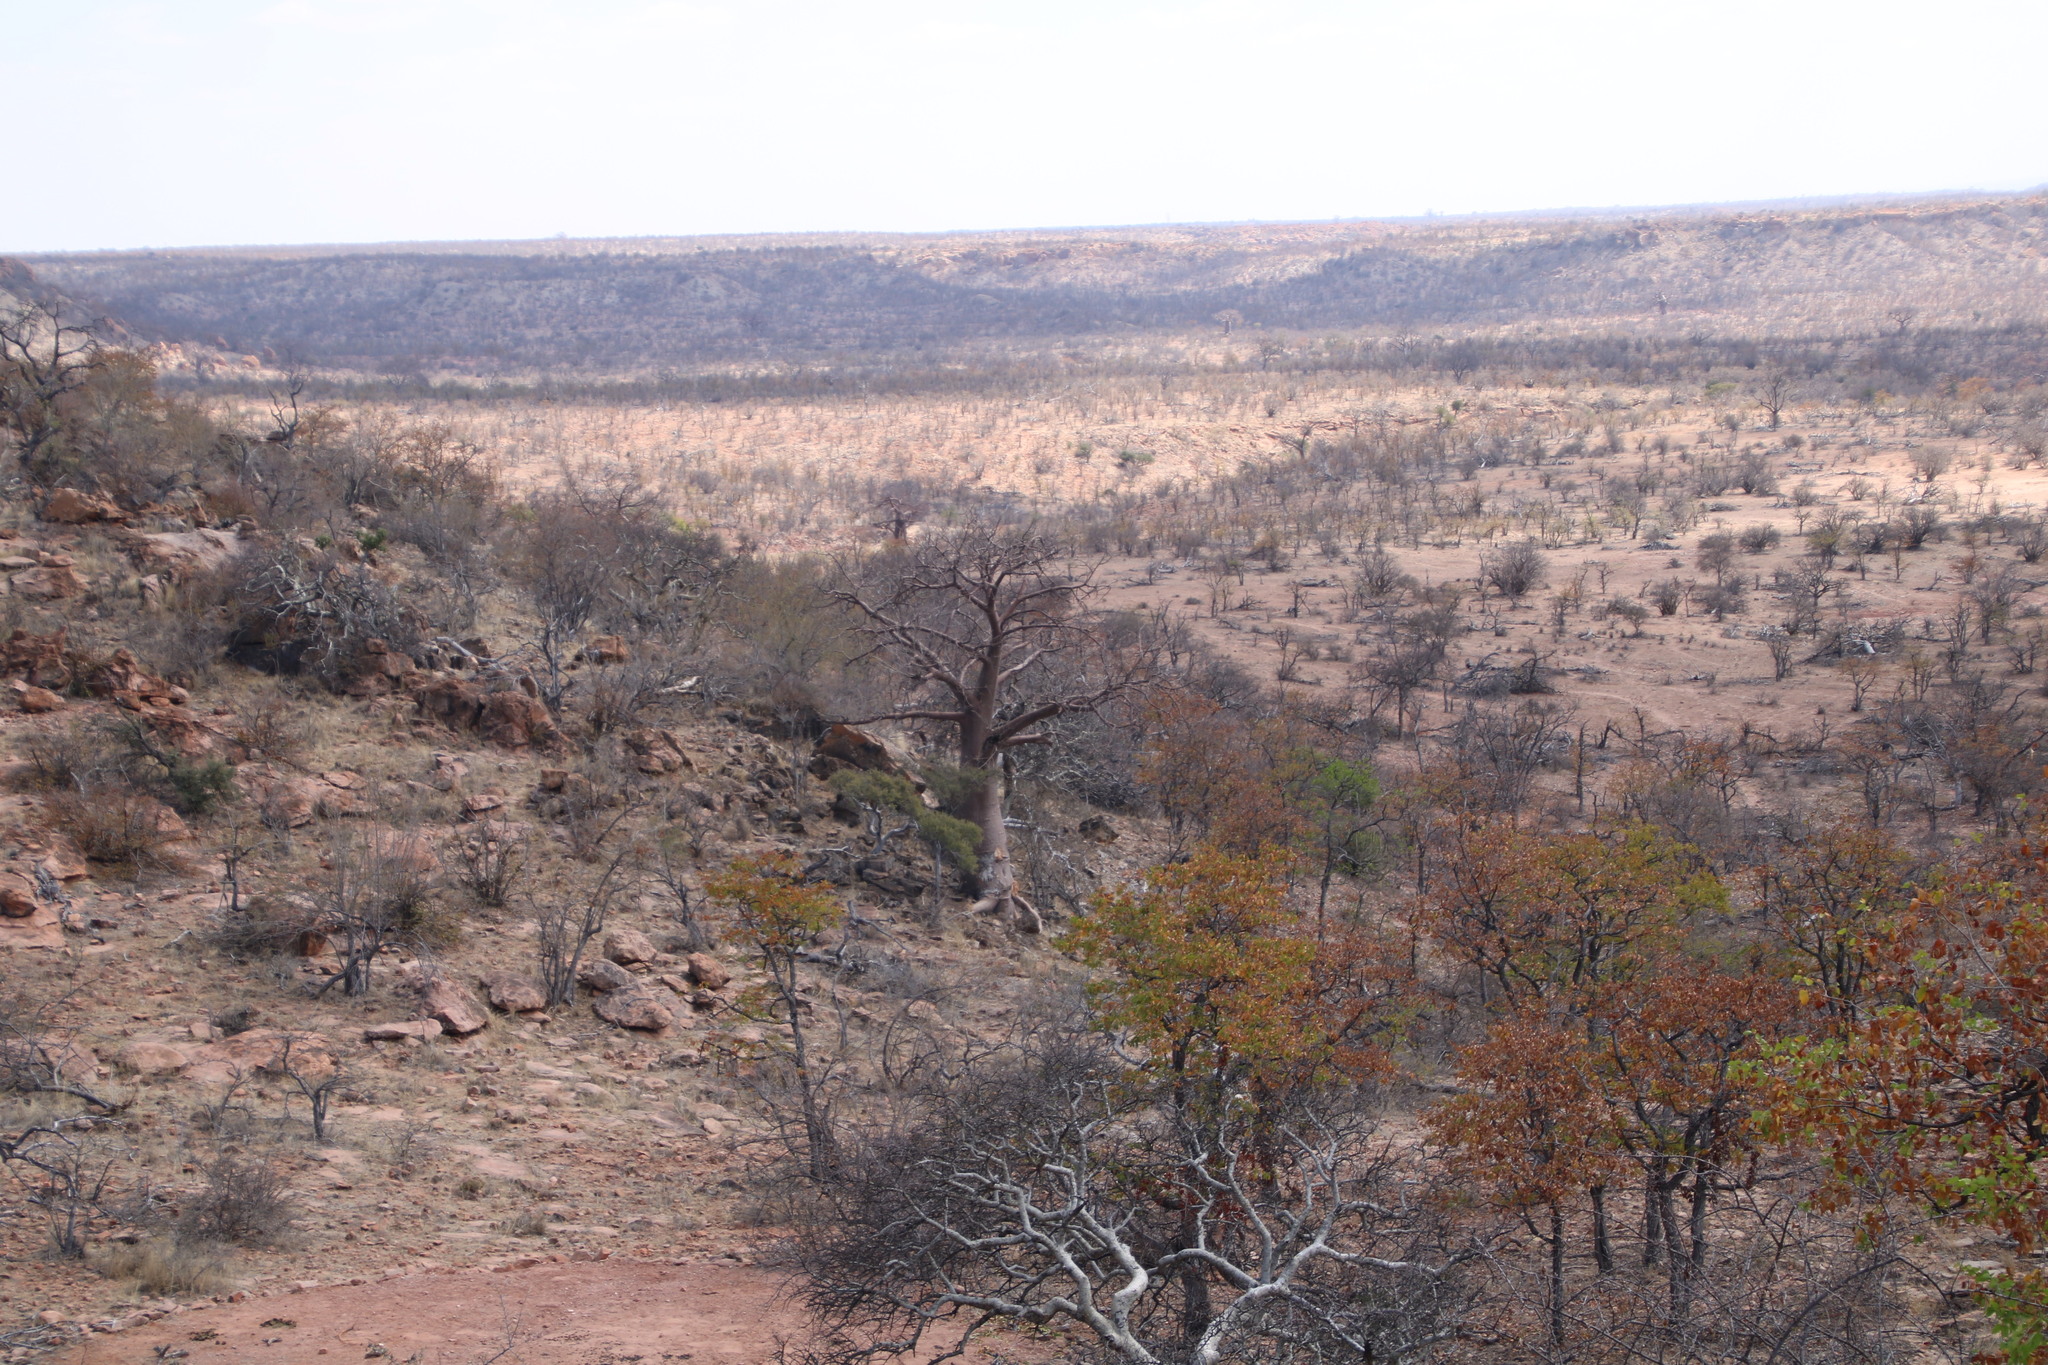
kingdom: Plantae
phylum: Tracheophyta
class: Magnoliopsida
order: Malvales
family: Malvaceae
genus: Adansonia
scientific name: Adansonia digitata
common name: Dead-rat-tree
